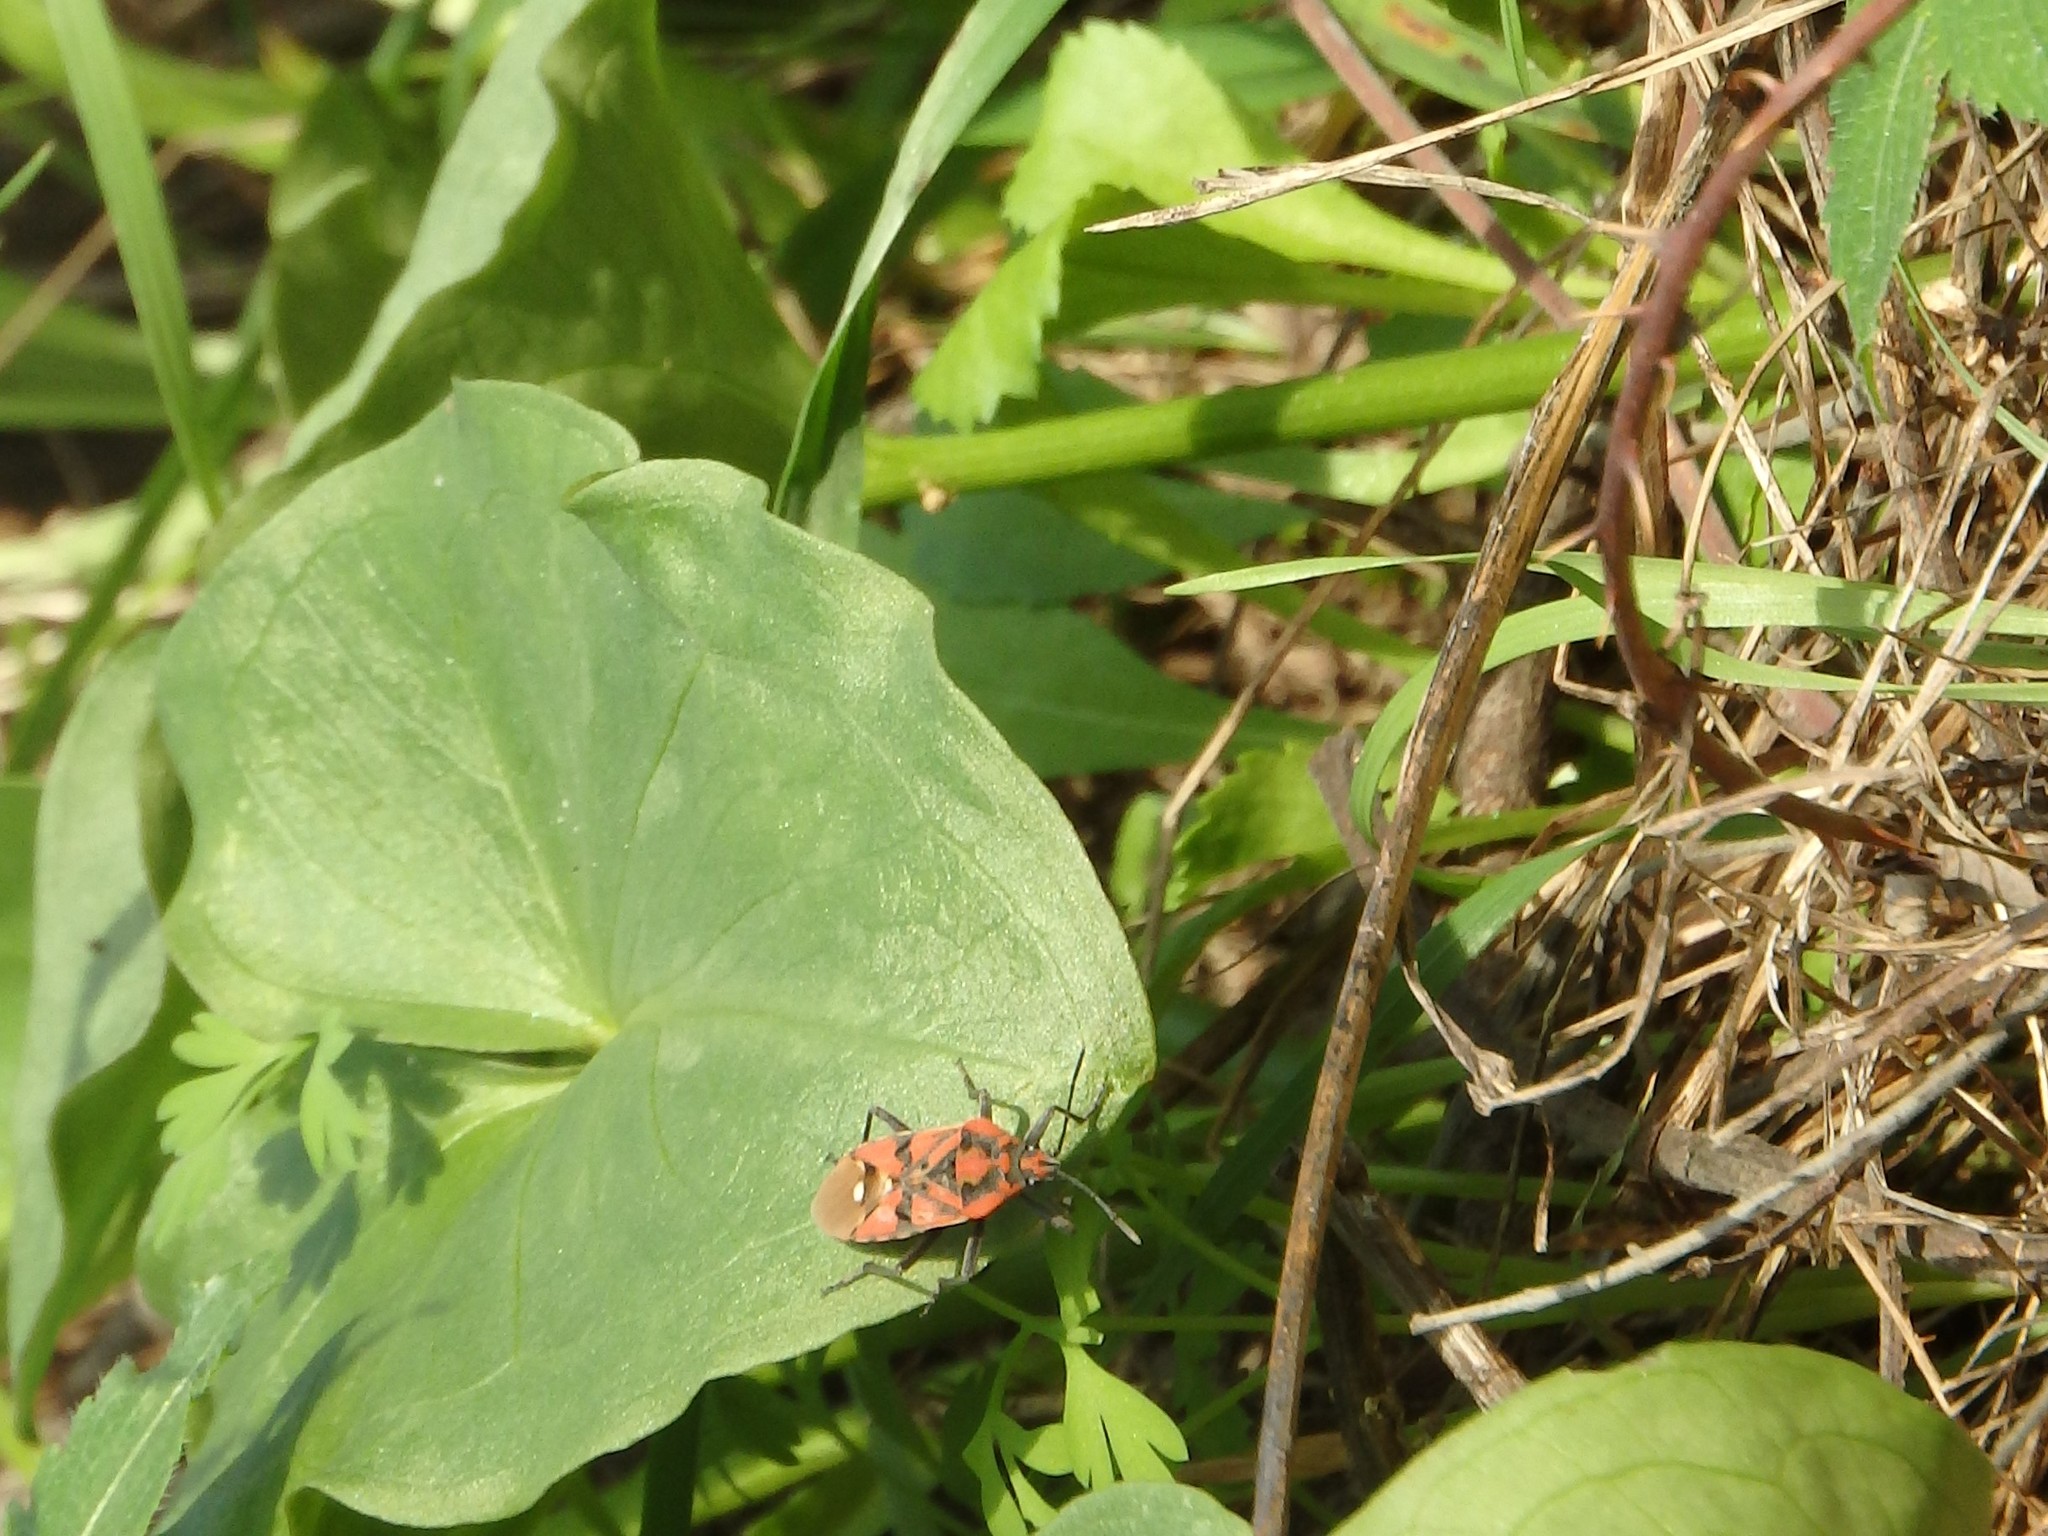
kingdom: Animalia
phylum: Arthropoda
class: Insecta
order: Hemiptera
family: Lygaeidae
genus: Spilostethus
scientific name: Spilostethus pandurus
